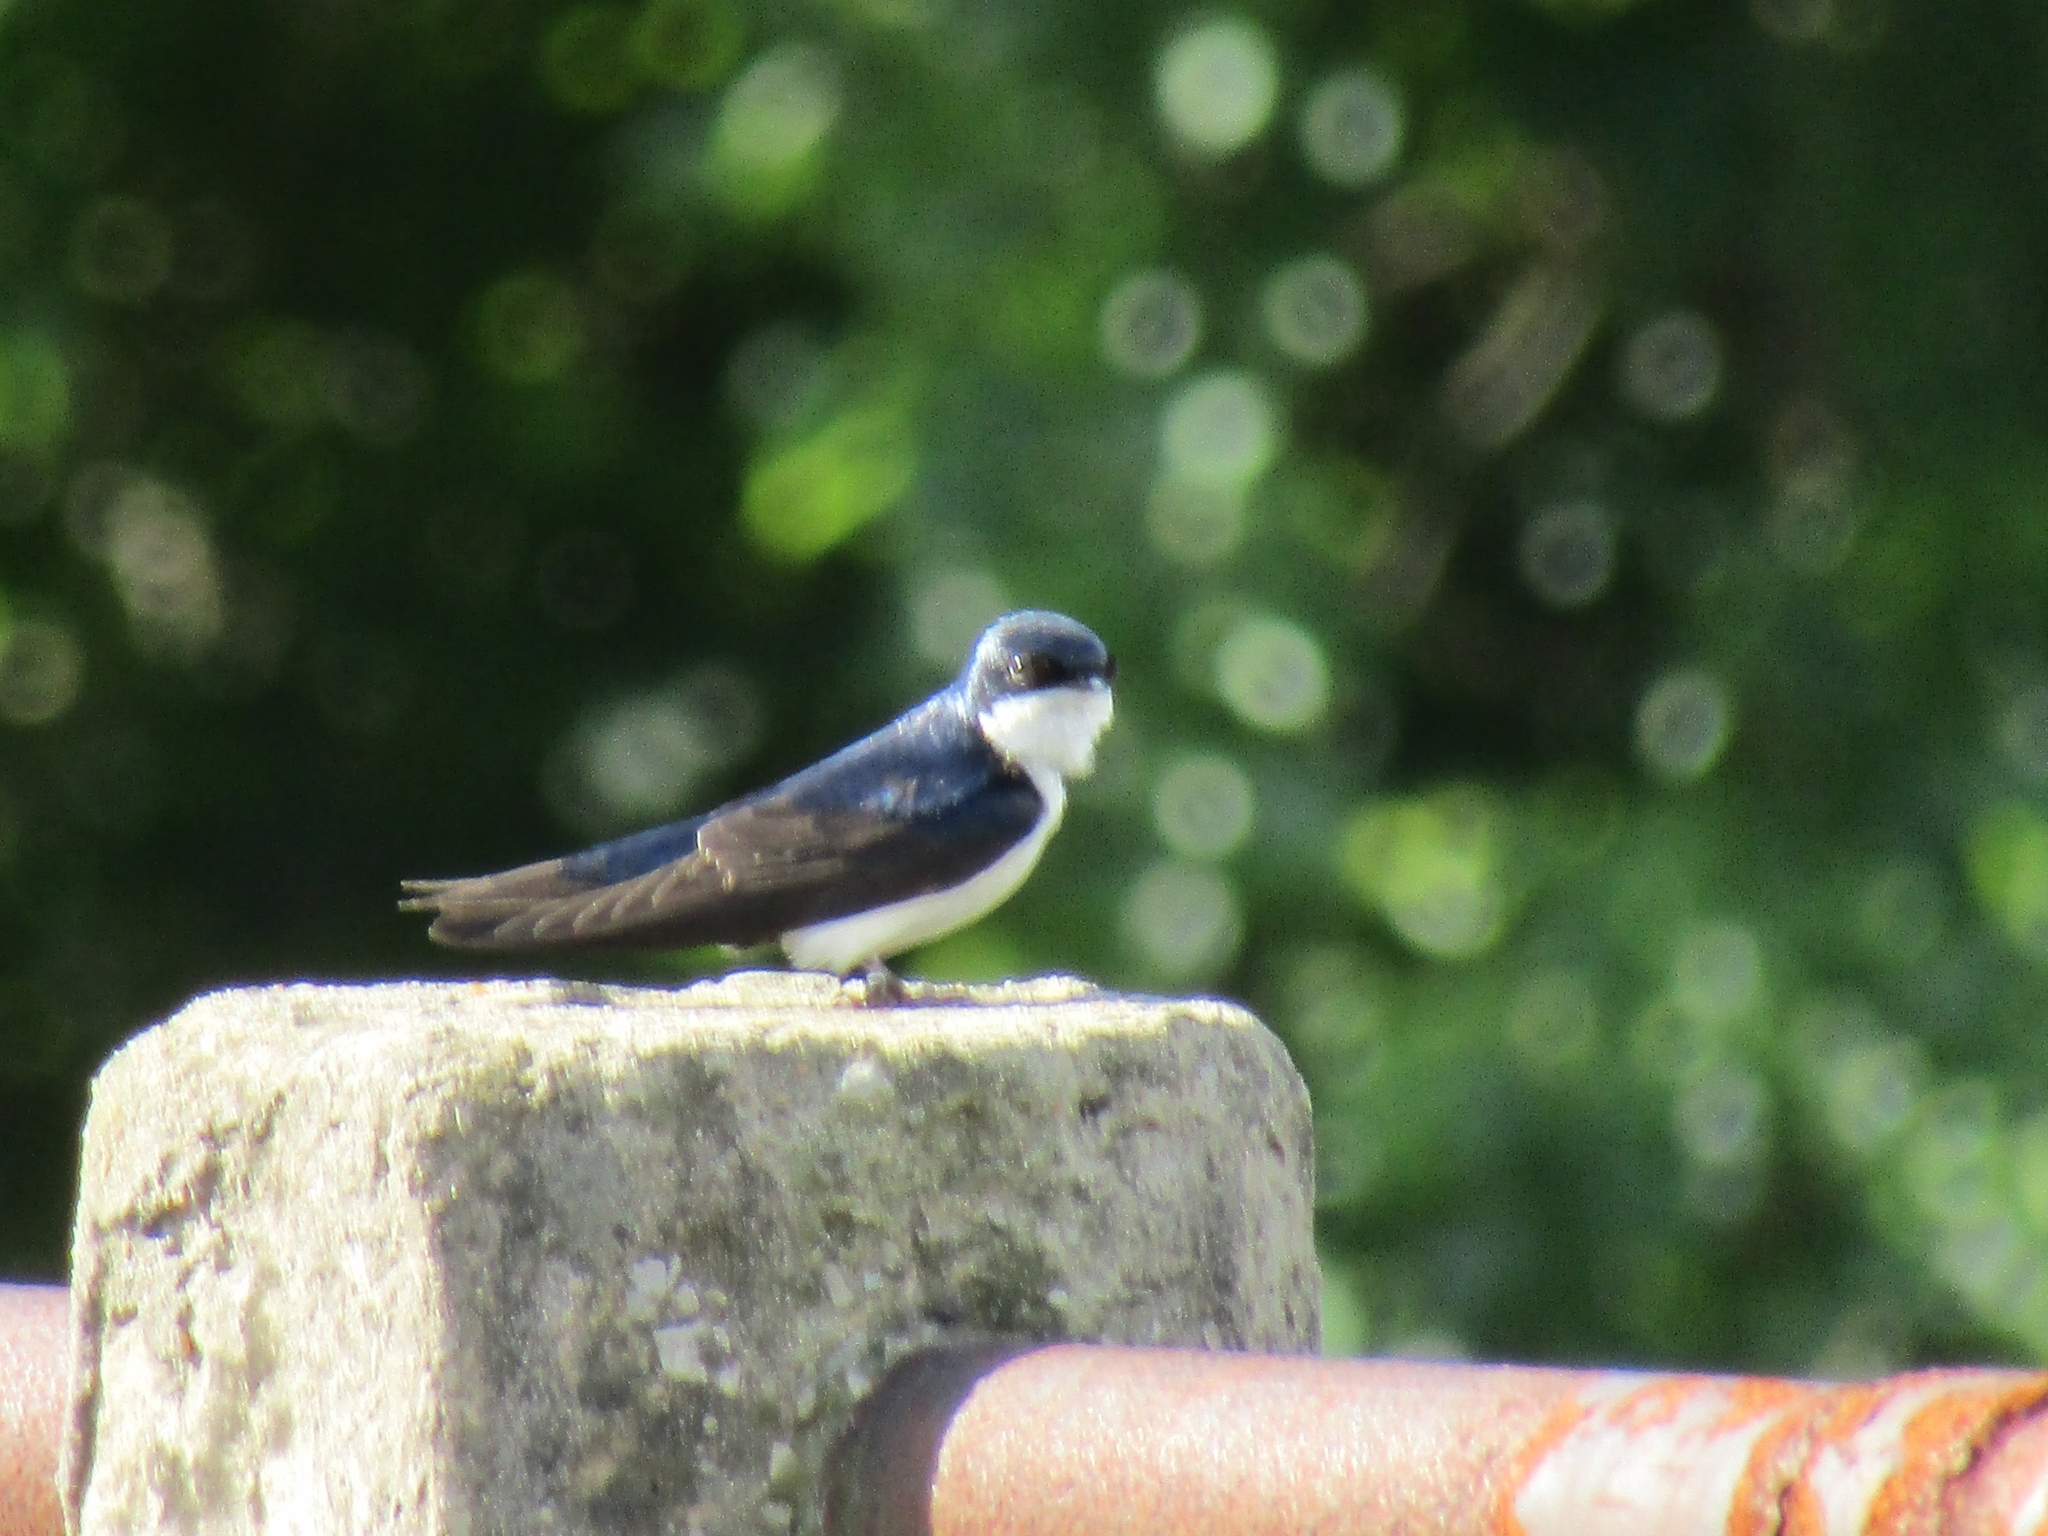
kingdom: Animalia
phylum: Chordata
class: Aves
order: Passeriformes
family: Hirundinidae
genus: Tachycineta
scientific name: Tachycineta leucorrhoa
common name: White-rumped swallow
